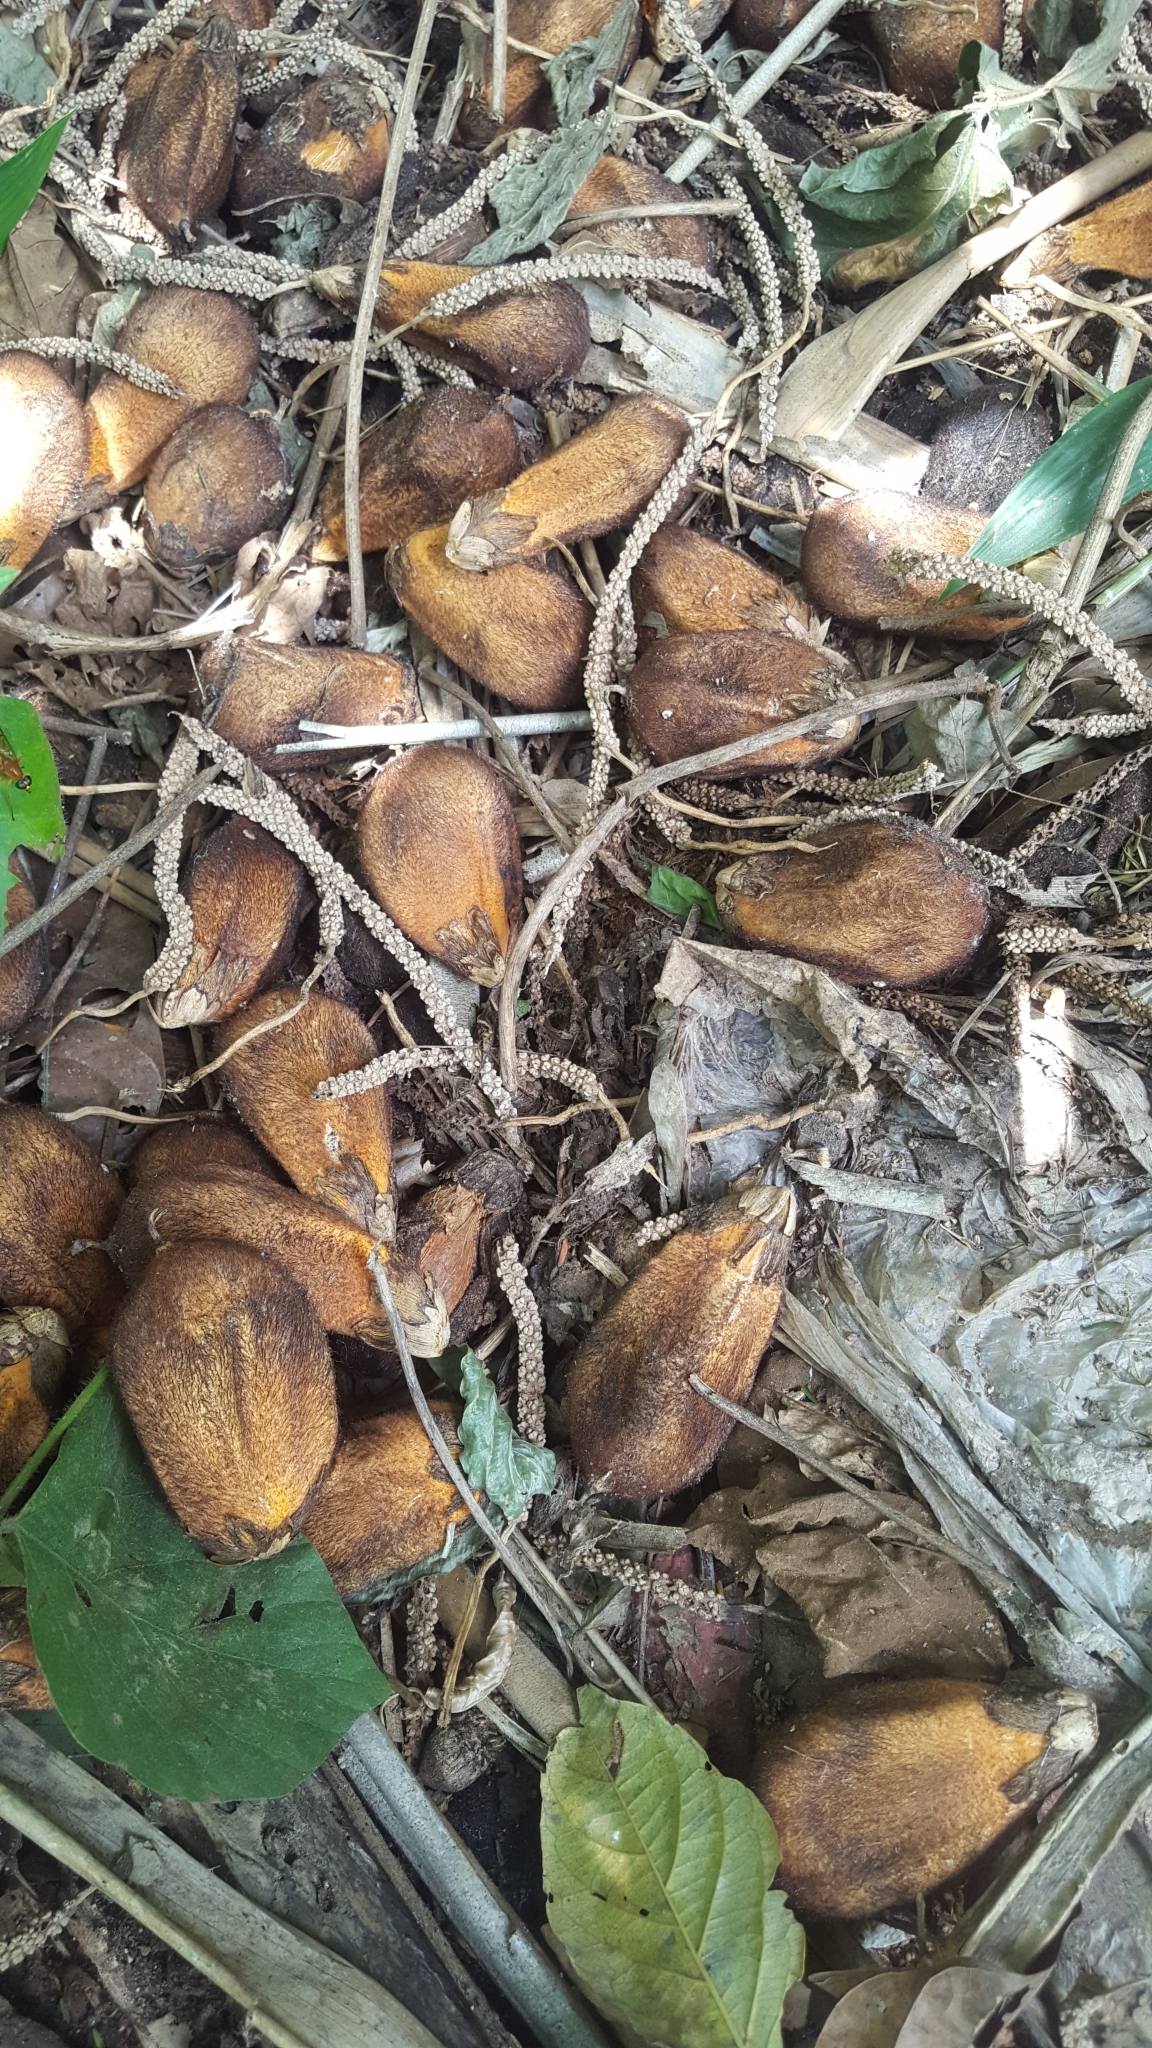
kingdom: Plantae
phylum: Tracheophyta
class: Liliopsida
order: Arecales
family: Arecaceae
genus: Astrocaryum
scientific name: Astrocaryum murumuru
